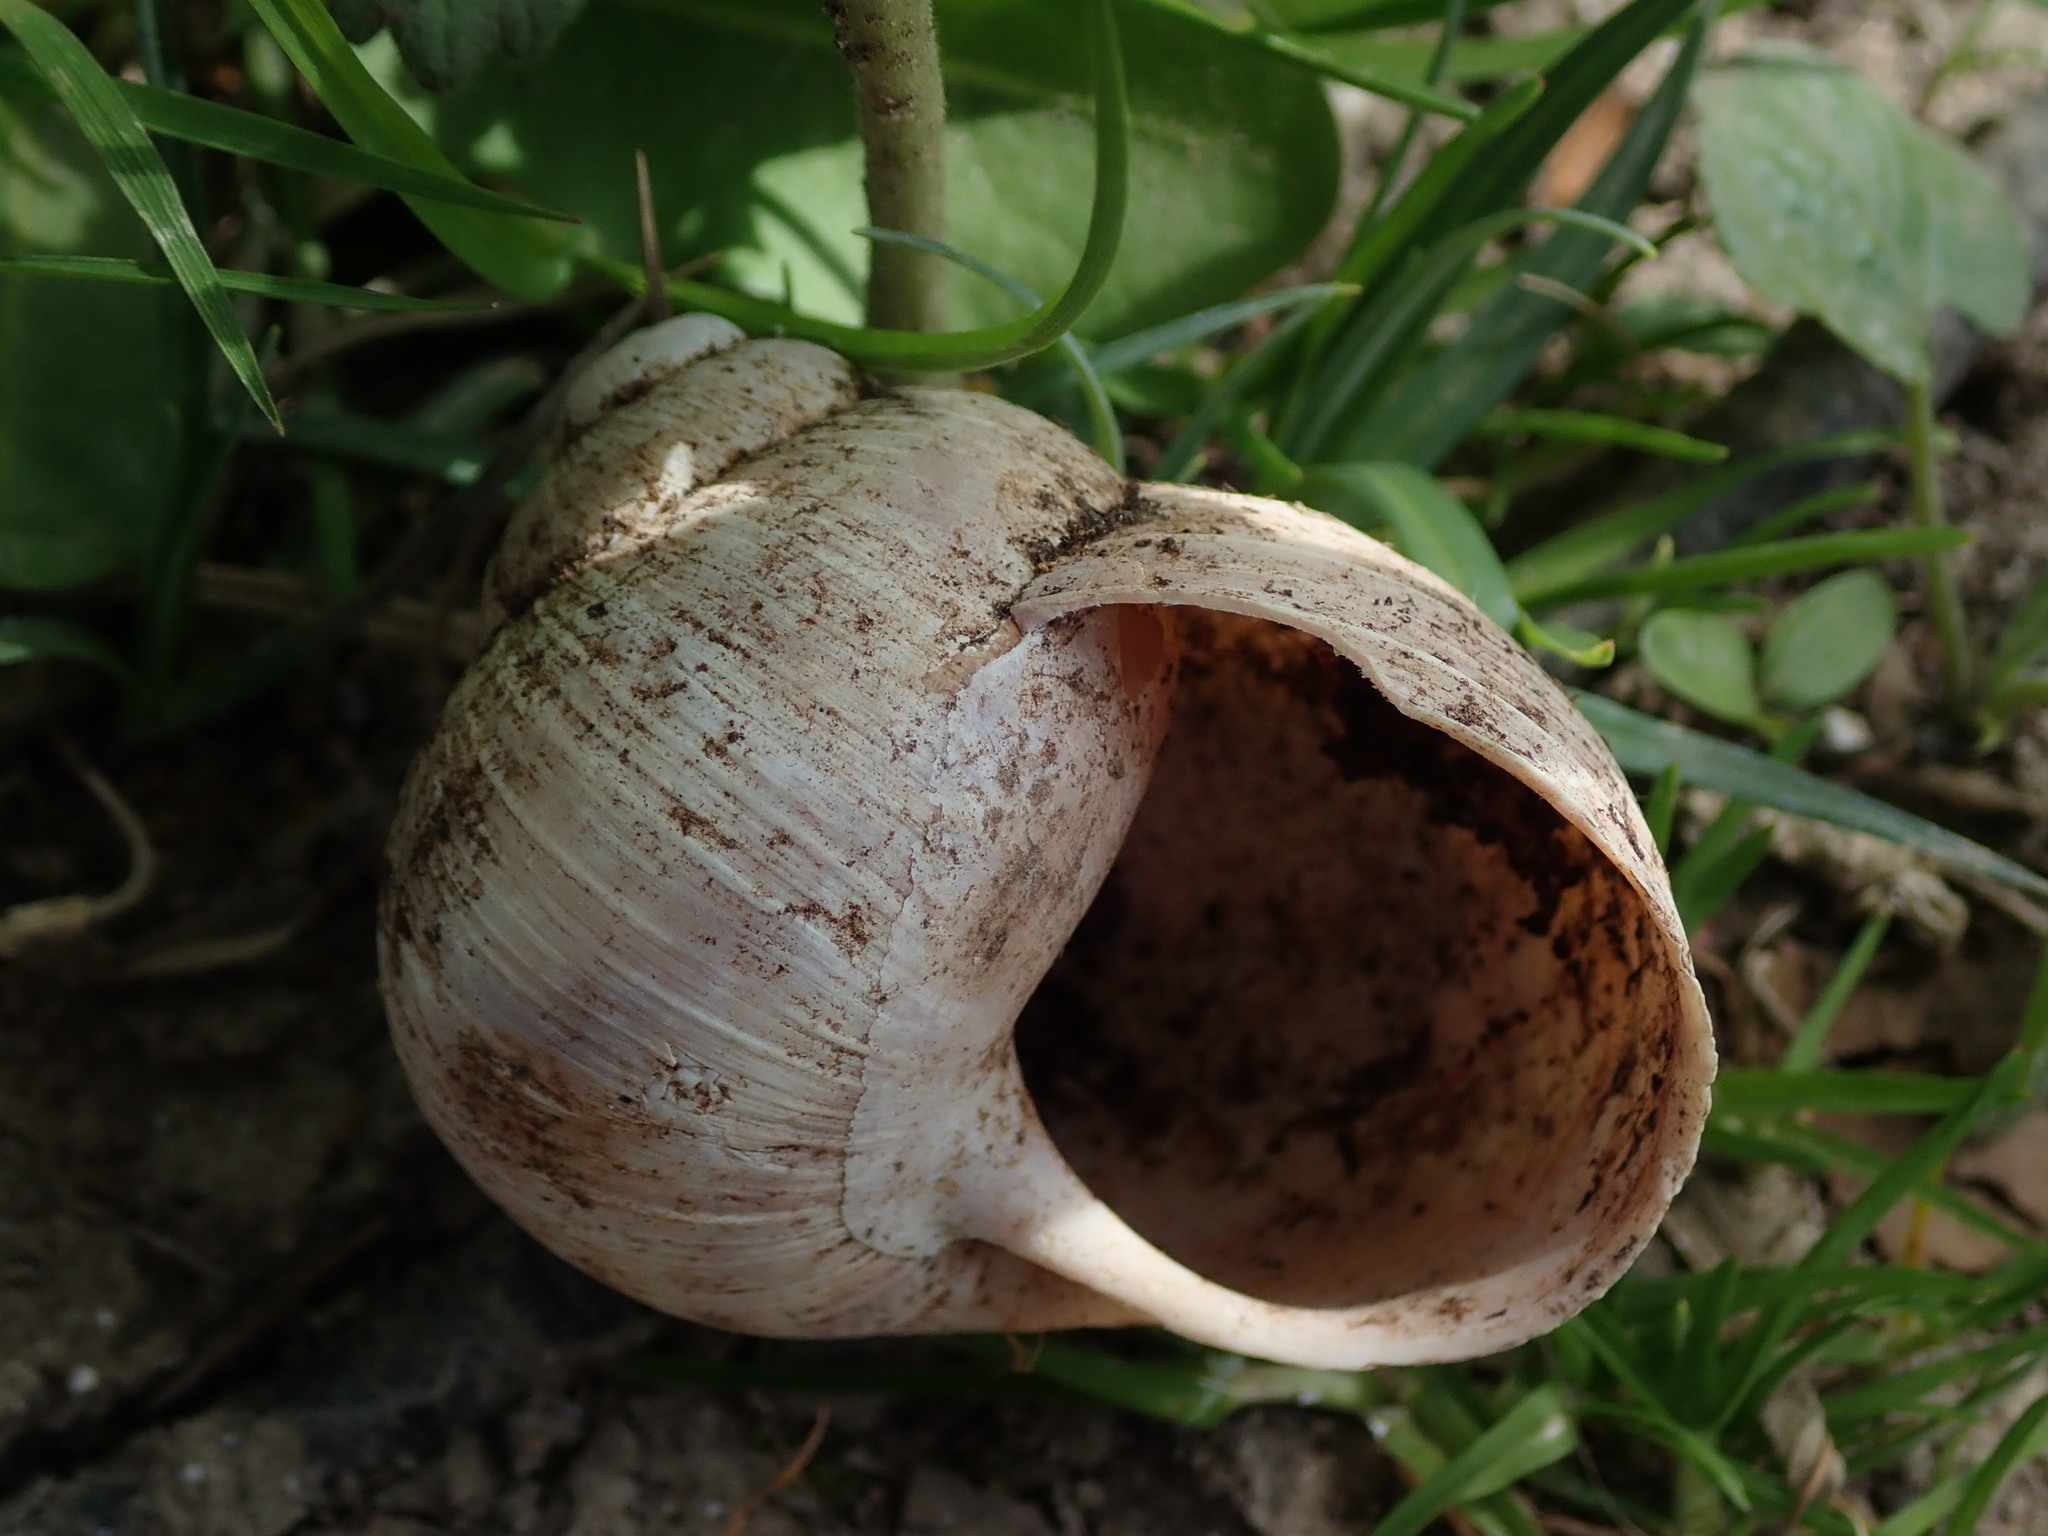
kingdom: Animalia
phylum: Mollusca
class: Gastropoda
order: Stylommatophora
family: Helicidae
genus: Helix
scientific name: Helix pomatia
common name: Roman snail
